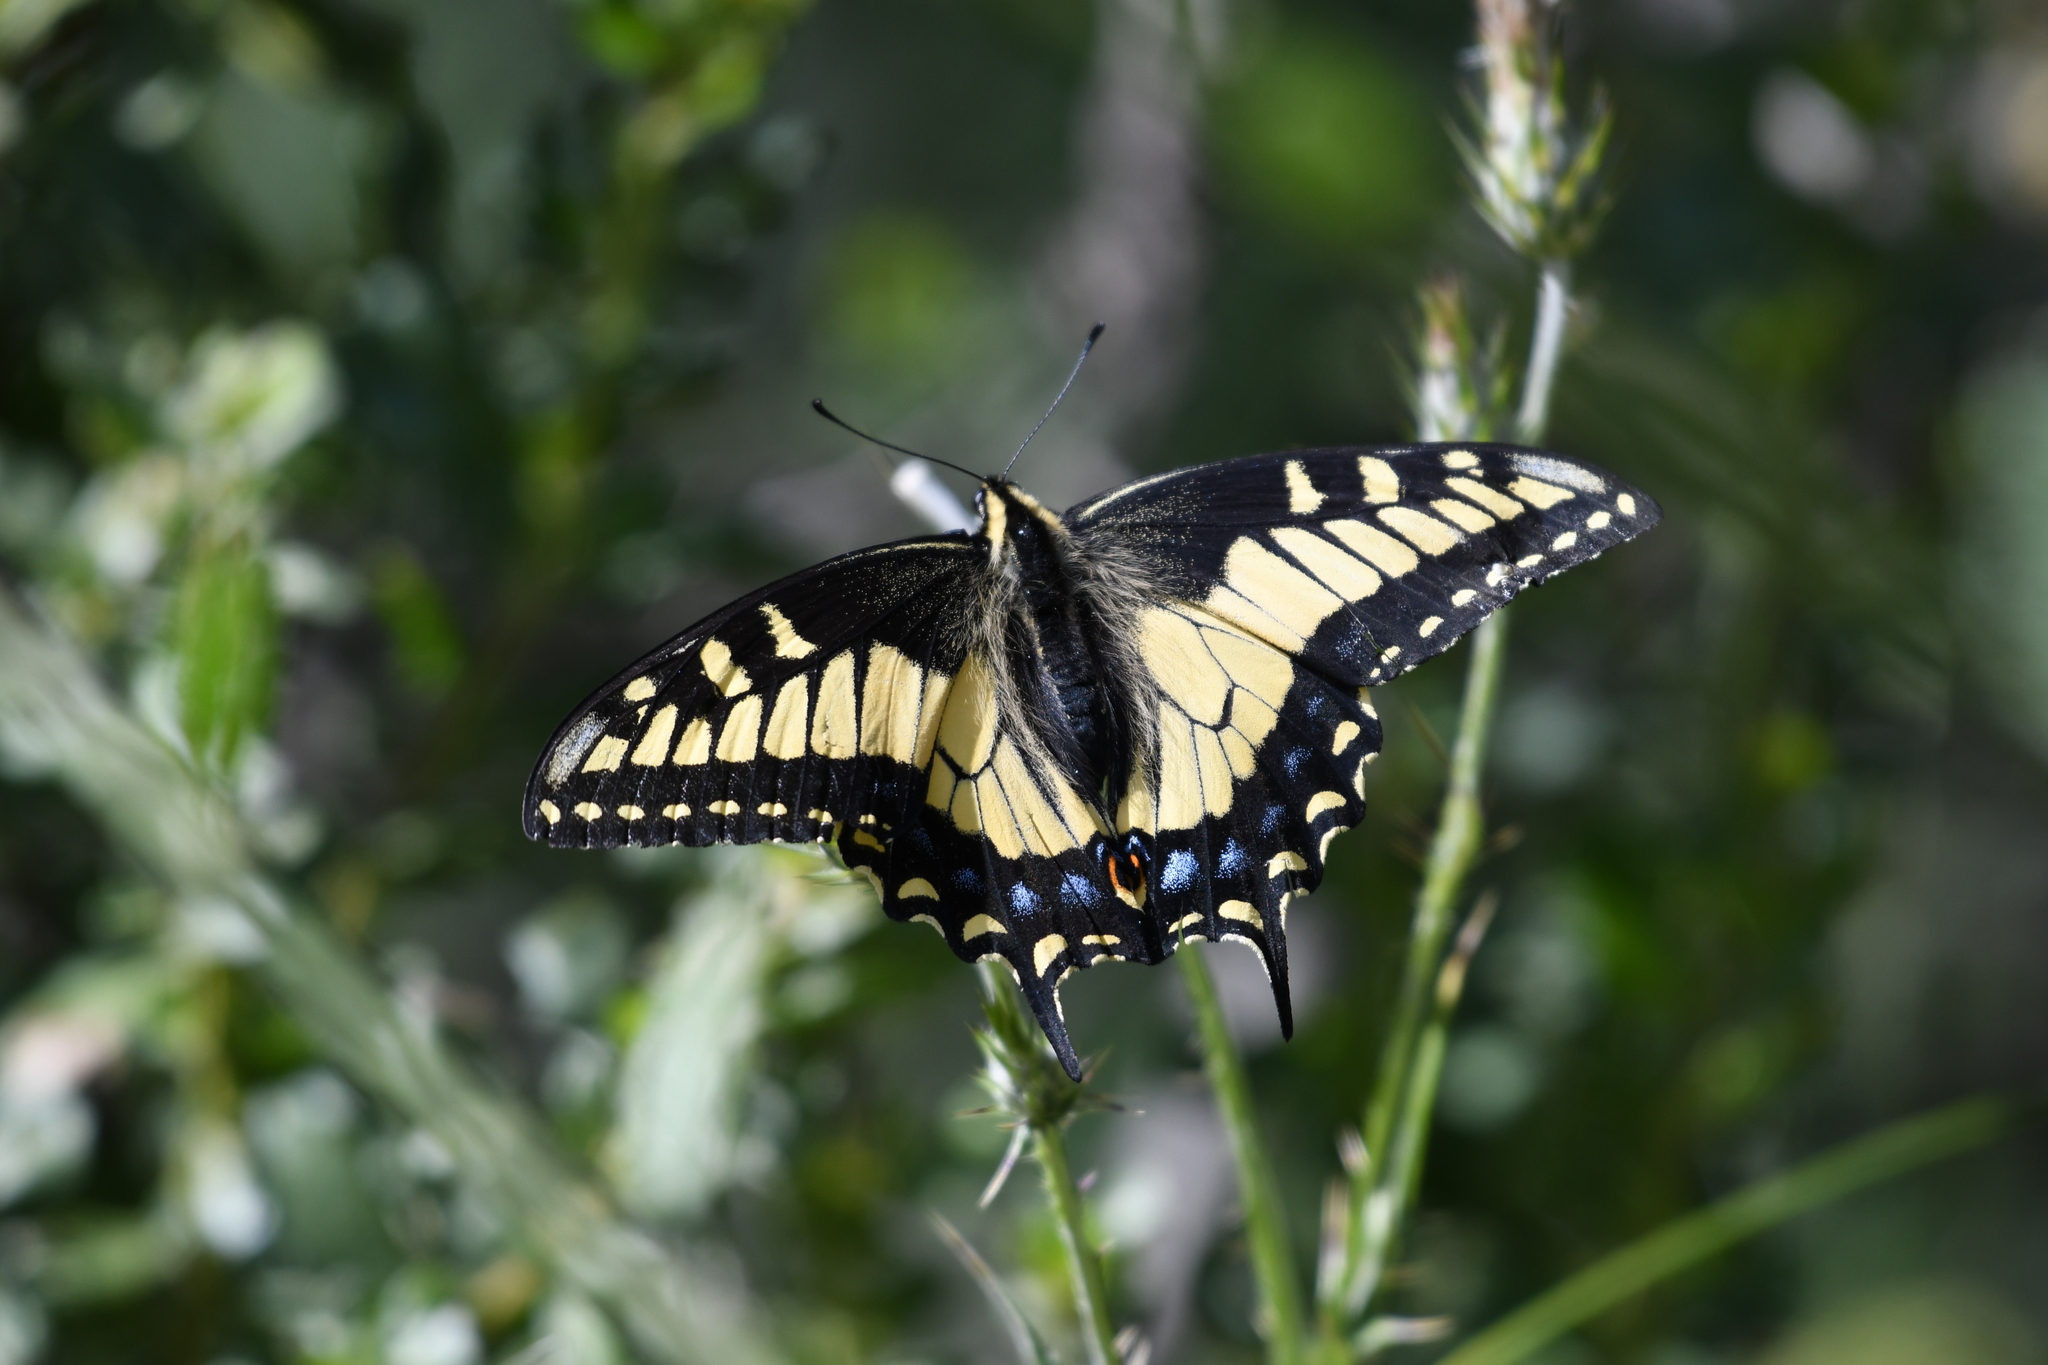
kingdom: Animalia
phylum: Arthropoda
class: Insecta
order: Lepidoptera
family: Papilionidae
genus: Papilio
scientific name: Papilio zelicaon
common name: Anise swallowtail
